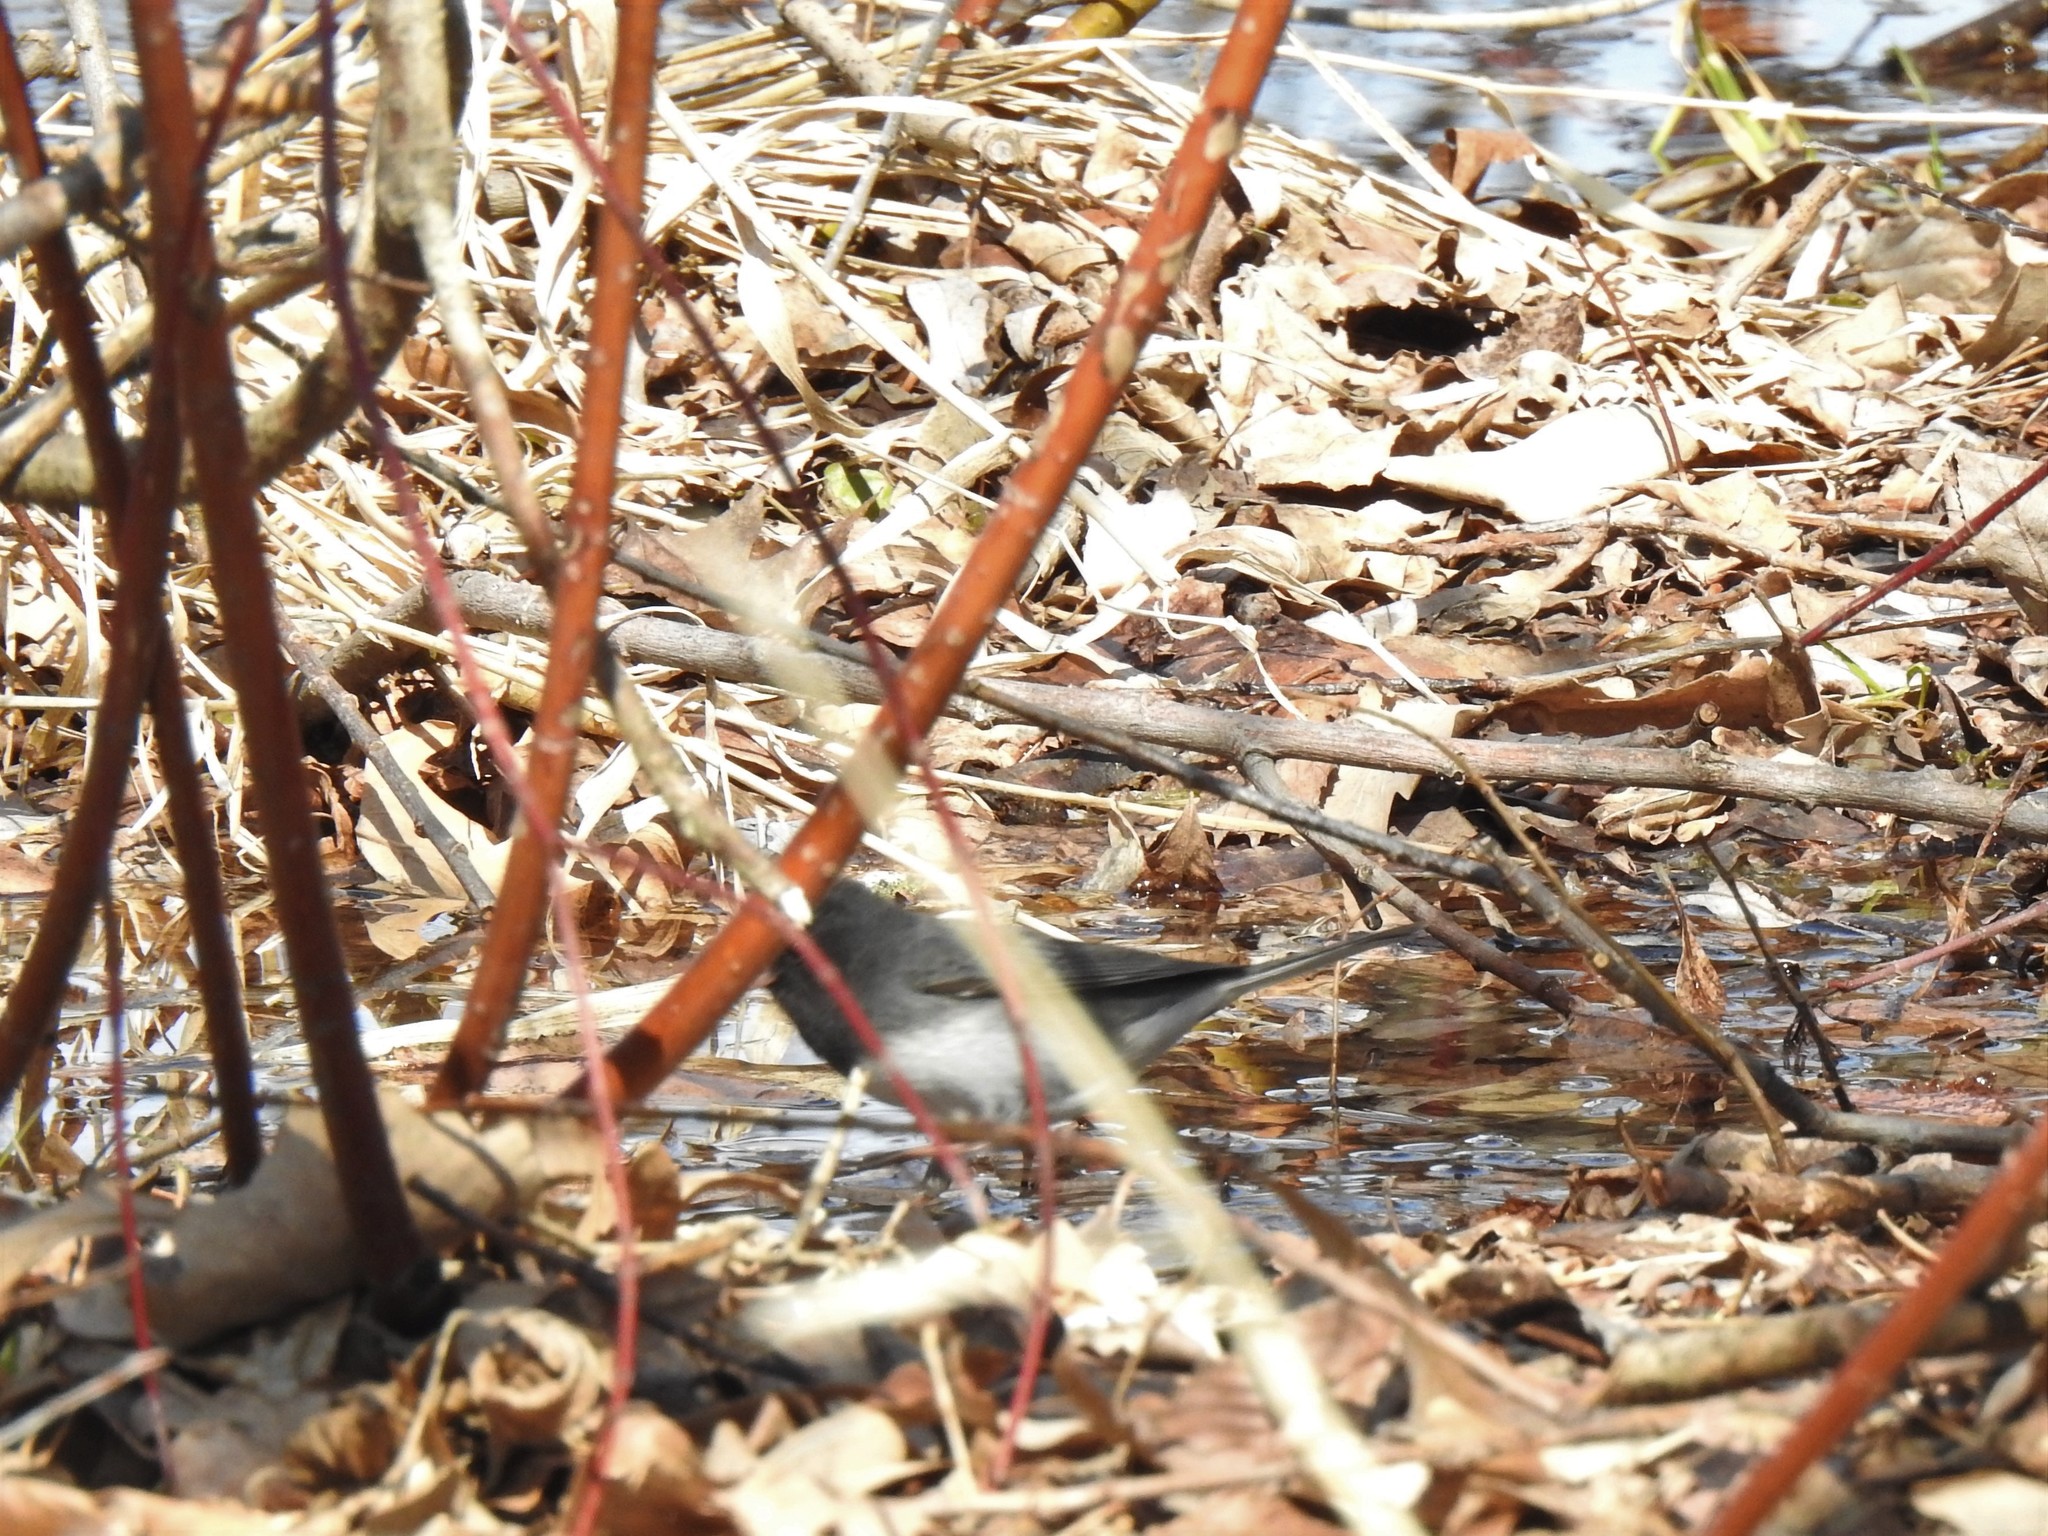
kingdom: Animalia
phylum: Chordata
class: Aves
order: Passeriformes
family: Passerellidae
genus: Junco
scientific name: Junco hyemalis
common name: Dark-eyed junco
